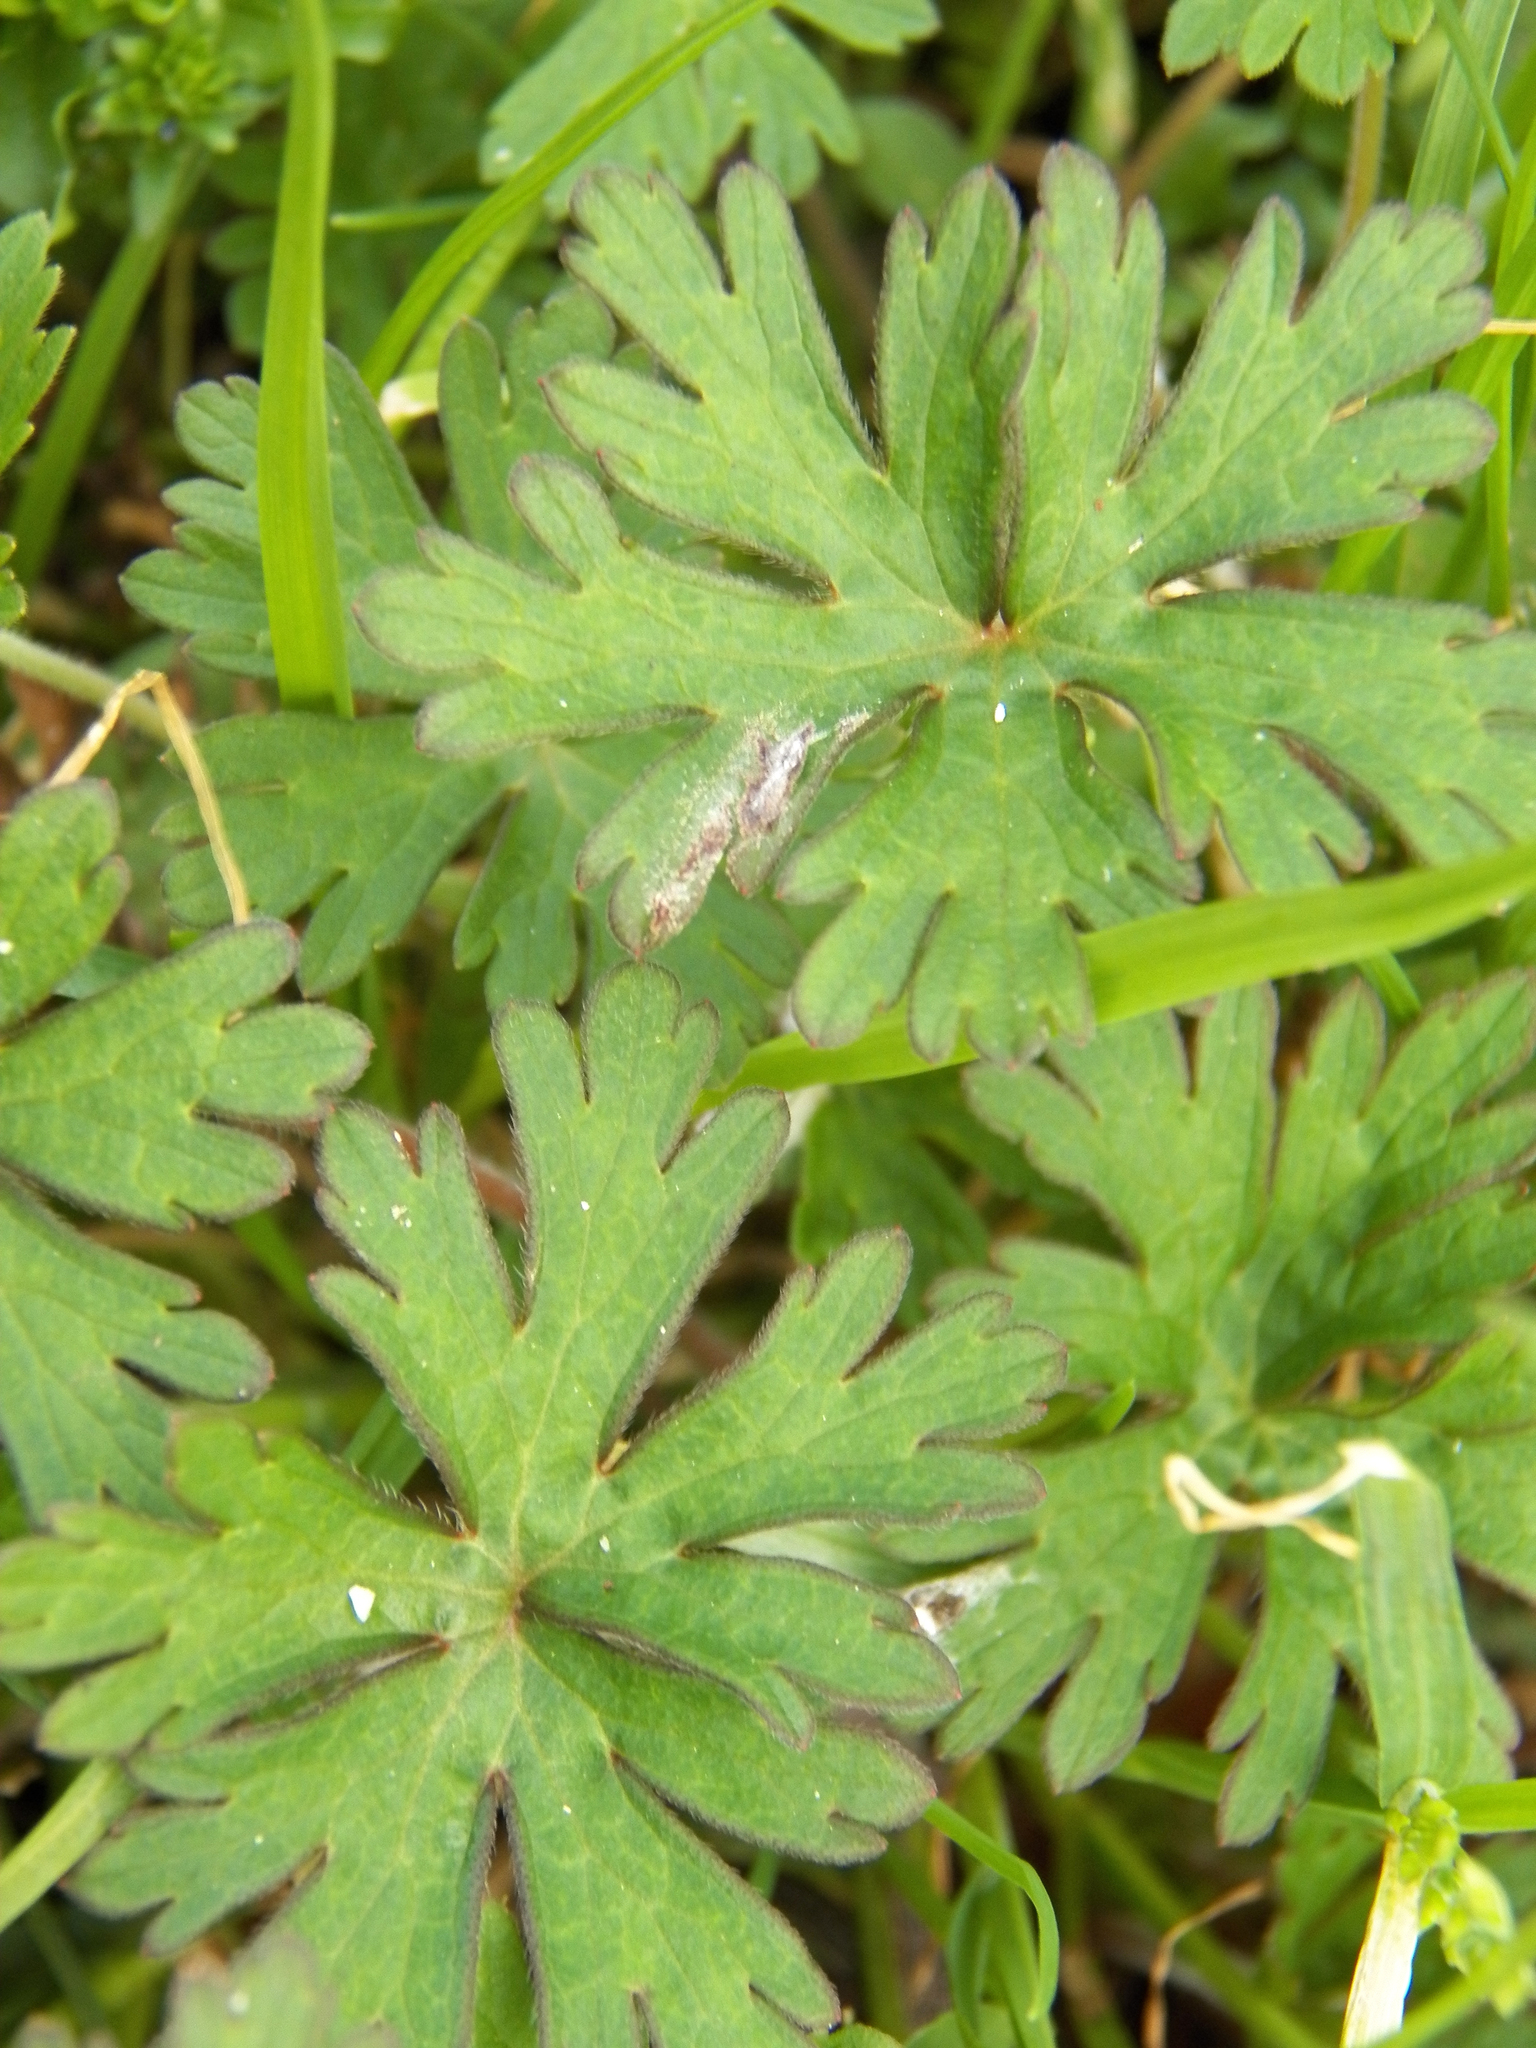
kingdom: Plantae
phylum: Tracheophyta
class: Magnoliopsida
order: Geraniales
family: Geraniaceae
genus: Geranium
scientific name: Geranium carolinianum
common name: Carolina crane's-bill
